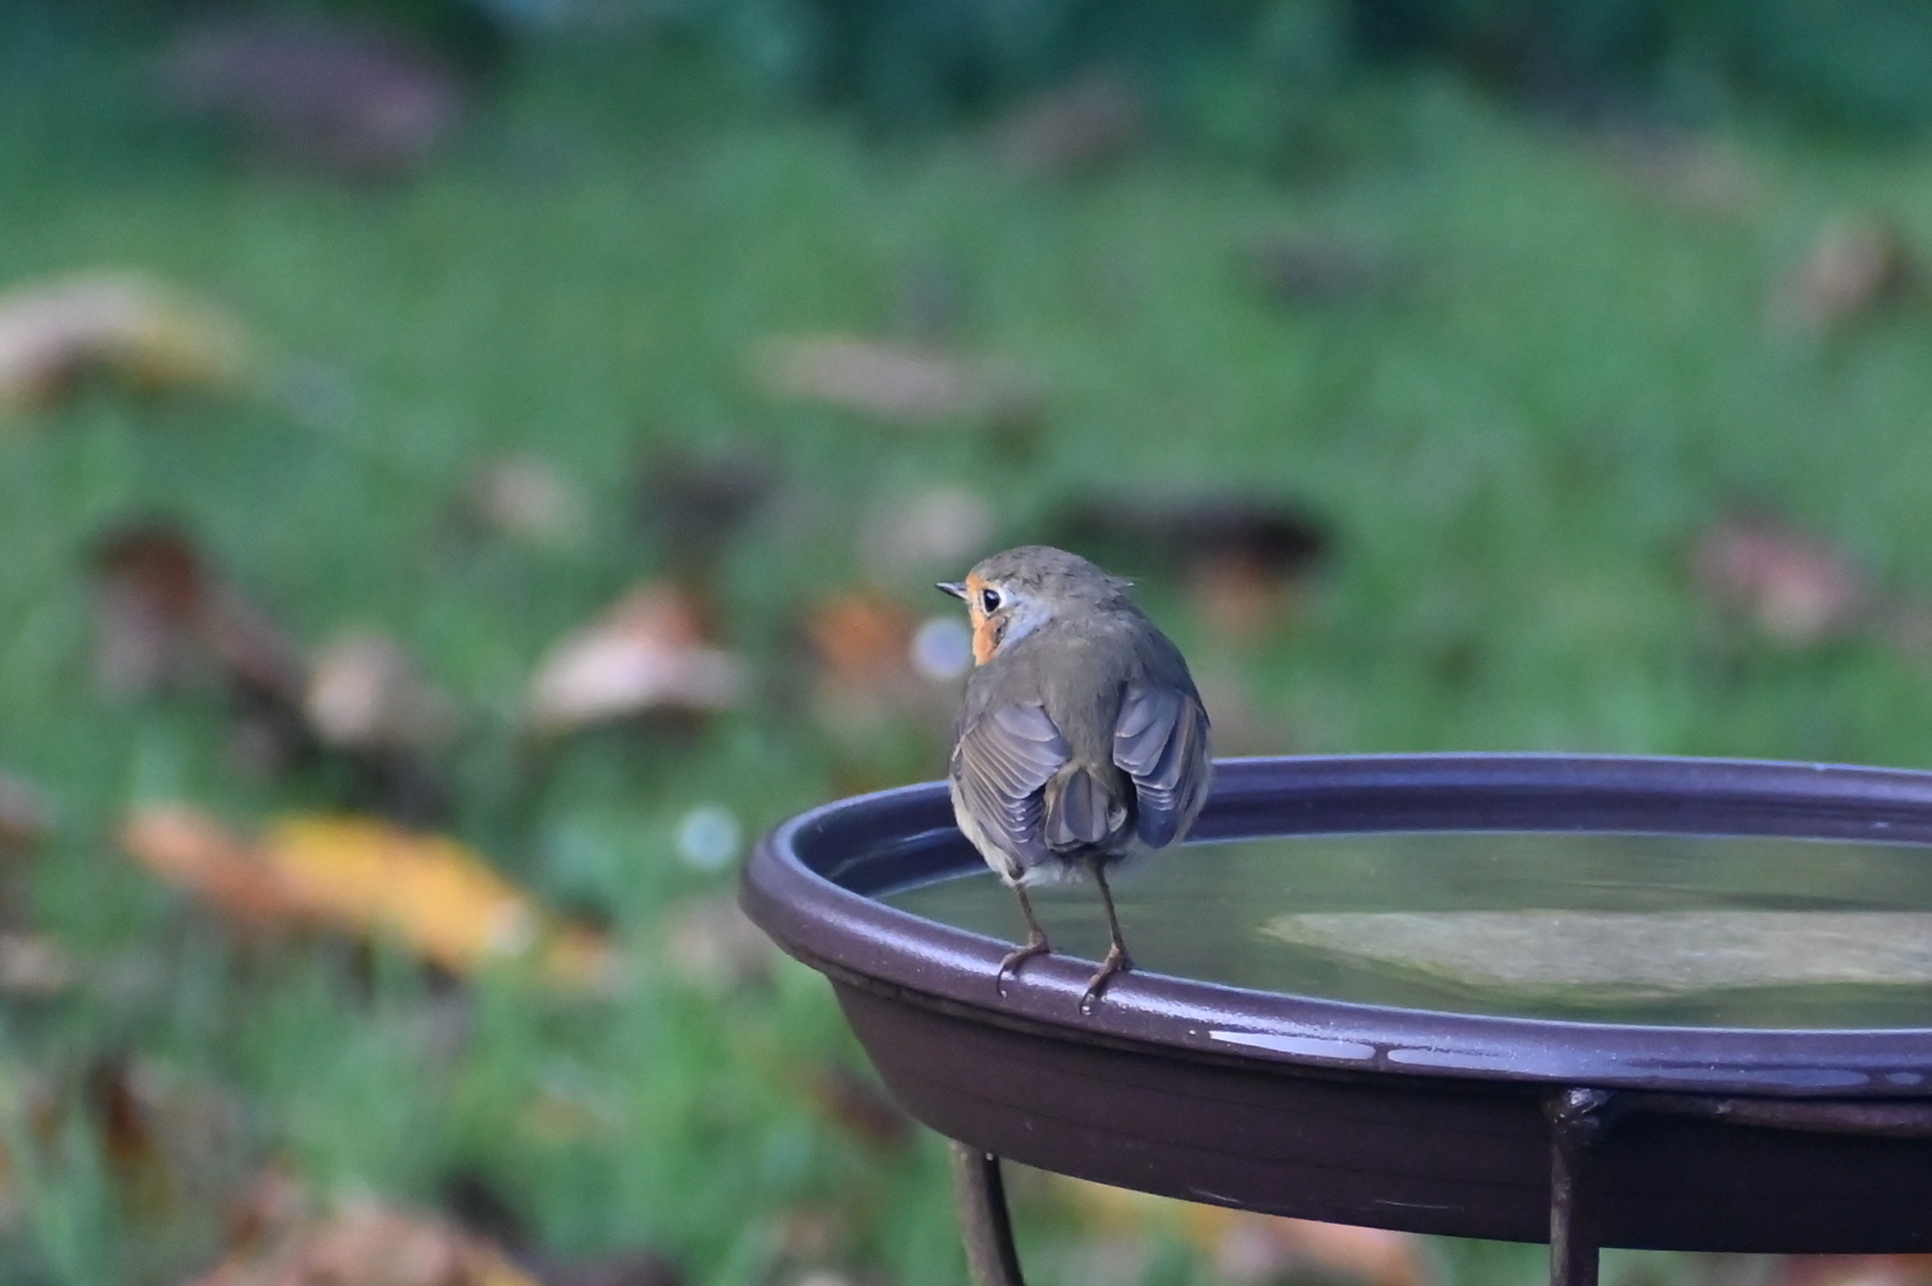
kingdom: Animalia
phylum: Chordata
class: Aves
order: Passeriformes
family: Muscicapidae
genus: Erithacus
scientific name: Erithacus rubecula
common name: European robin
